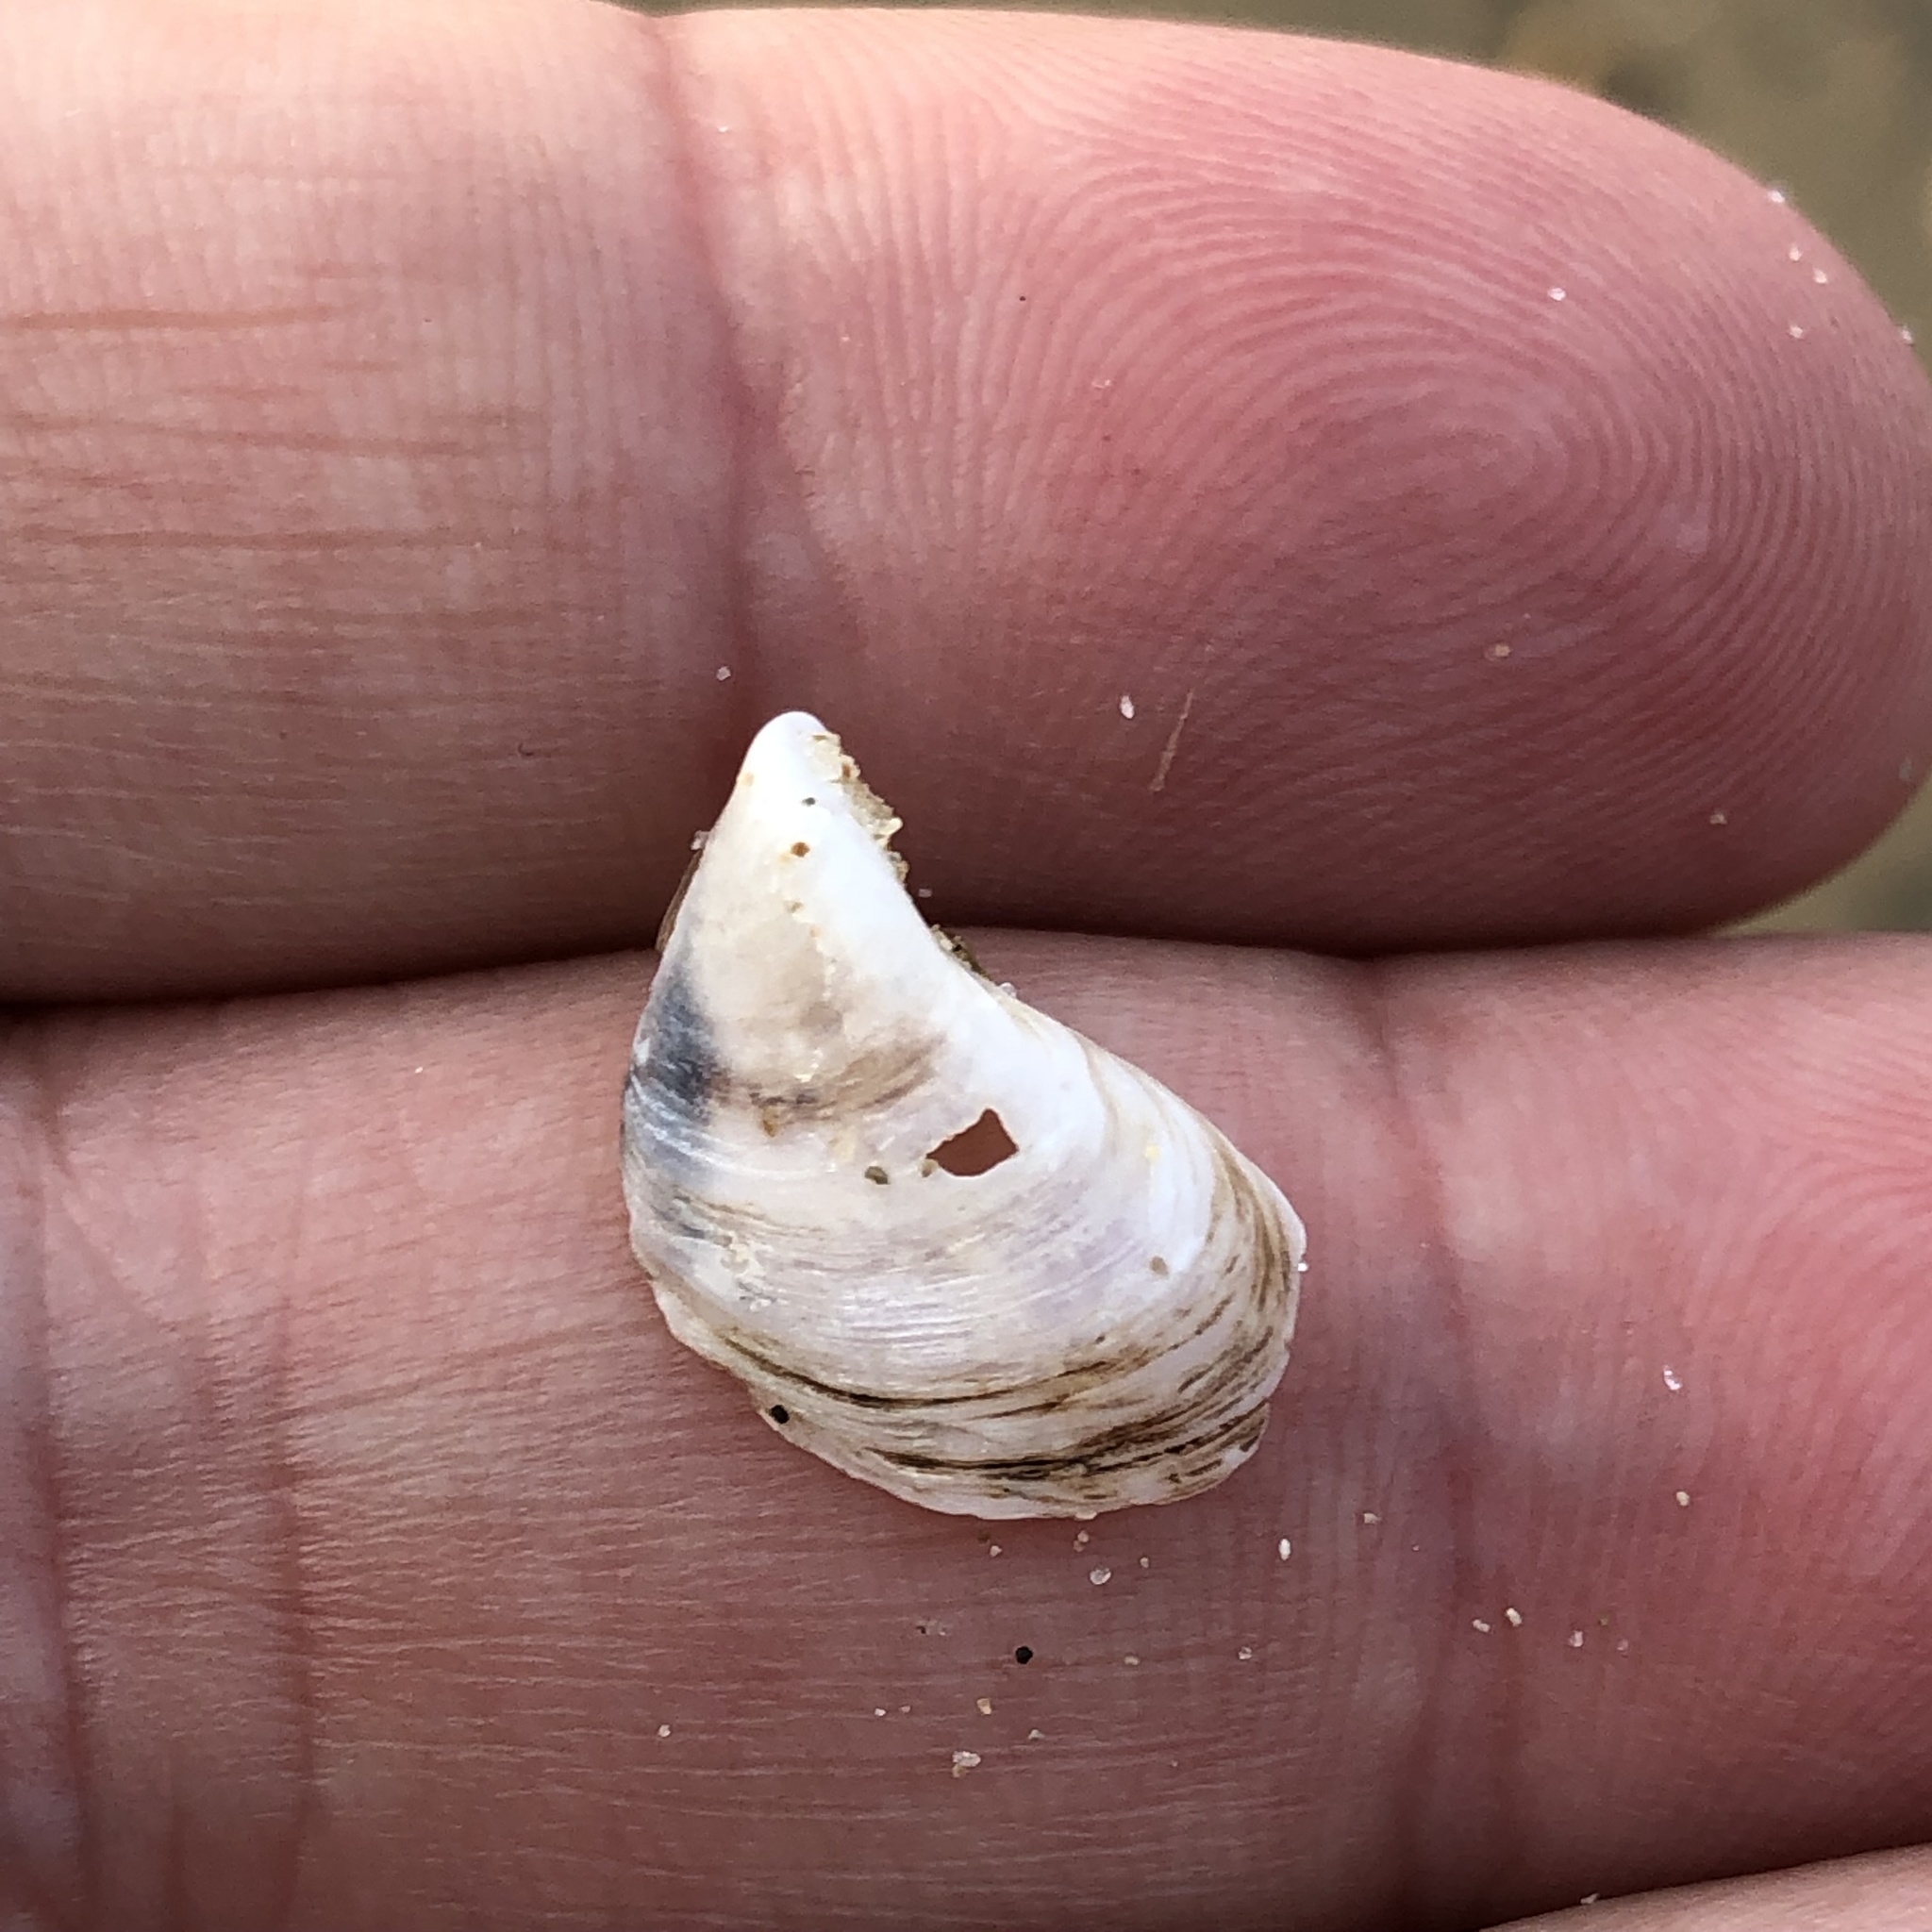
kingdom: Animalia
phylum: Mollusca
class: Bivalvia
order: Myida
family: Dreissenidae
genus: Dreissena
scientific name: Dreissena bugensis
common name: Quagga mussel
